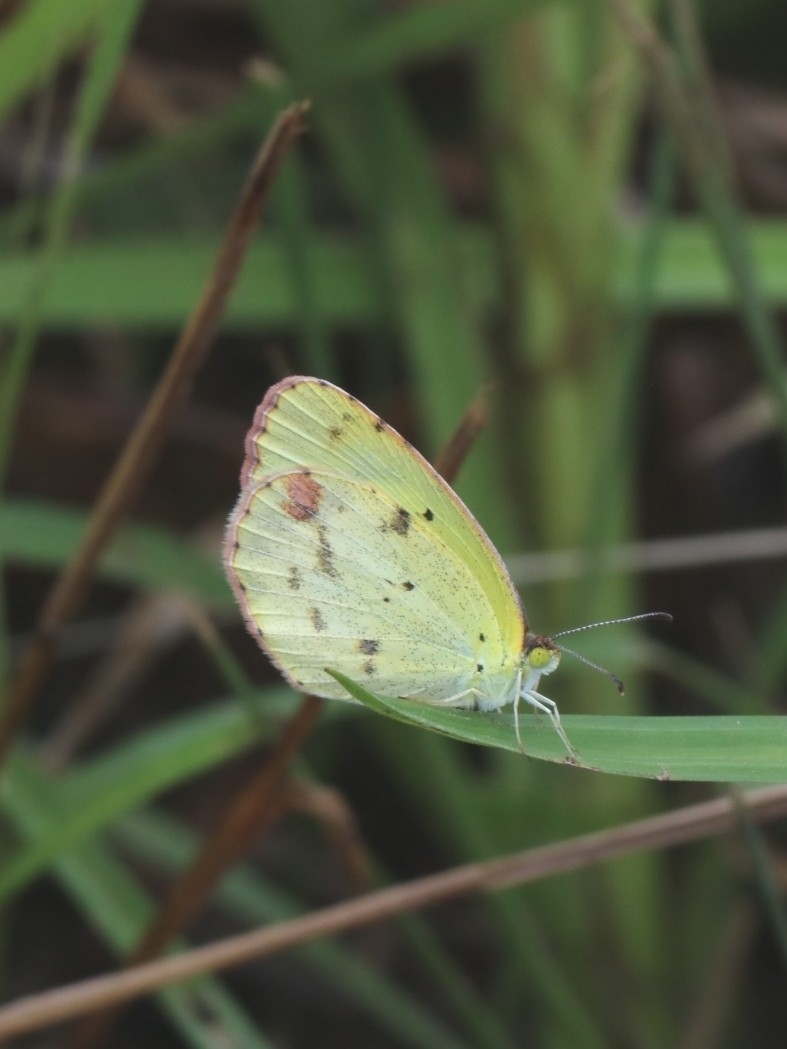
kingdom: Animalia
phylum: Arthropoda
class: Insecta
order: Lepidoptera
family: Pieridae
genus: Pyrisitia
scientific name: Pyrisitia lisa
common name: Little yellow
